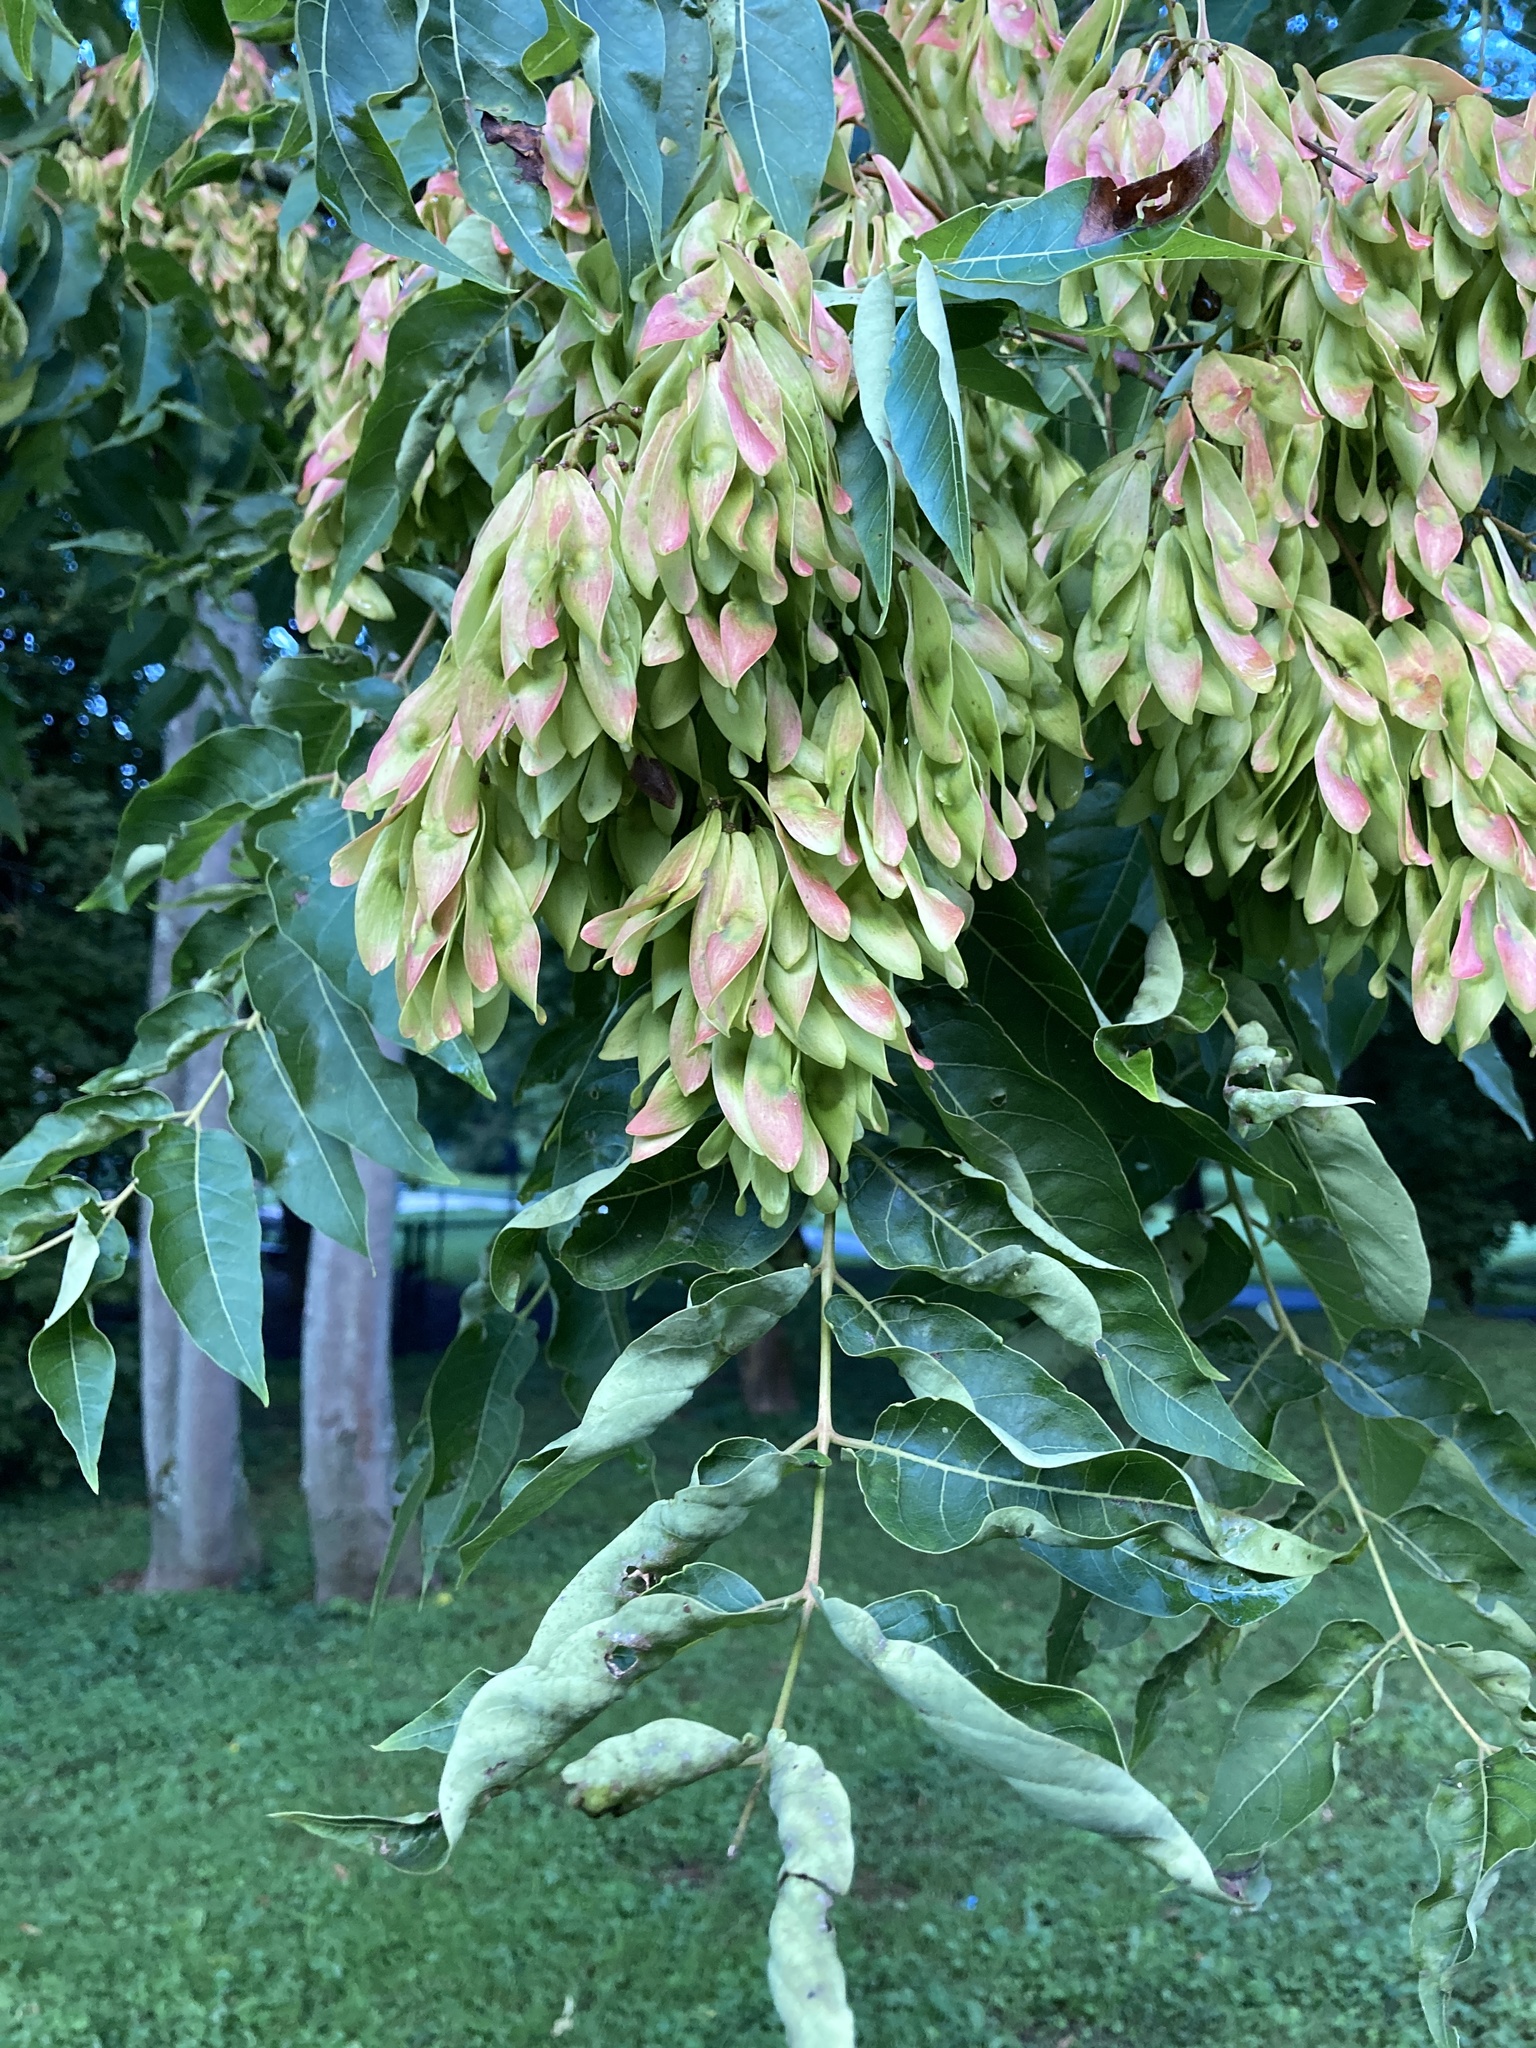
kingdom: Plantae
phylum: Tracheophyta
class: Magnoliopsida
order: Sapindales
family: Simaroubaceae
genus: Ailanthus
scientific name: Ailanthus altissima
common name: Tree-of-heaven
